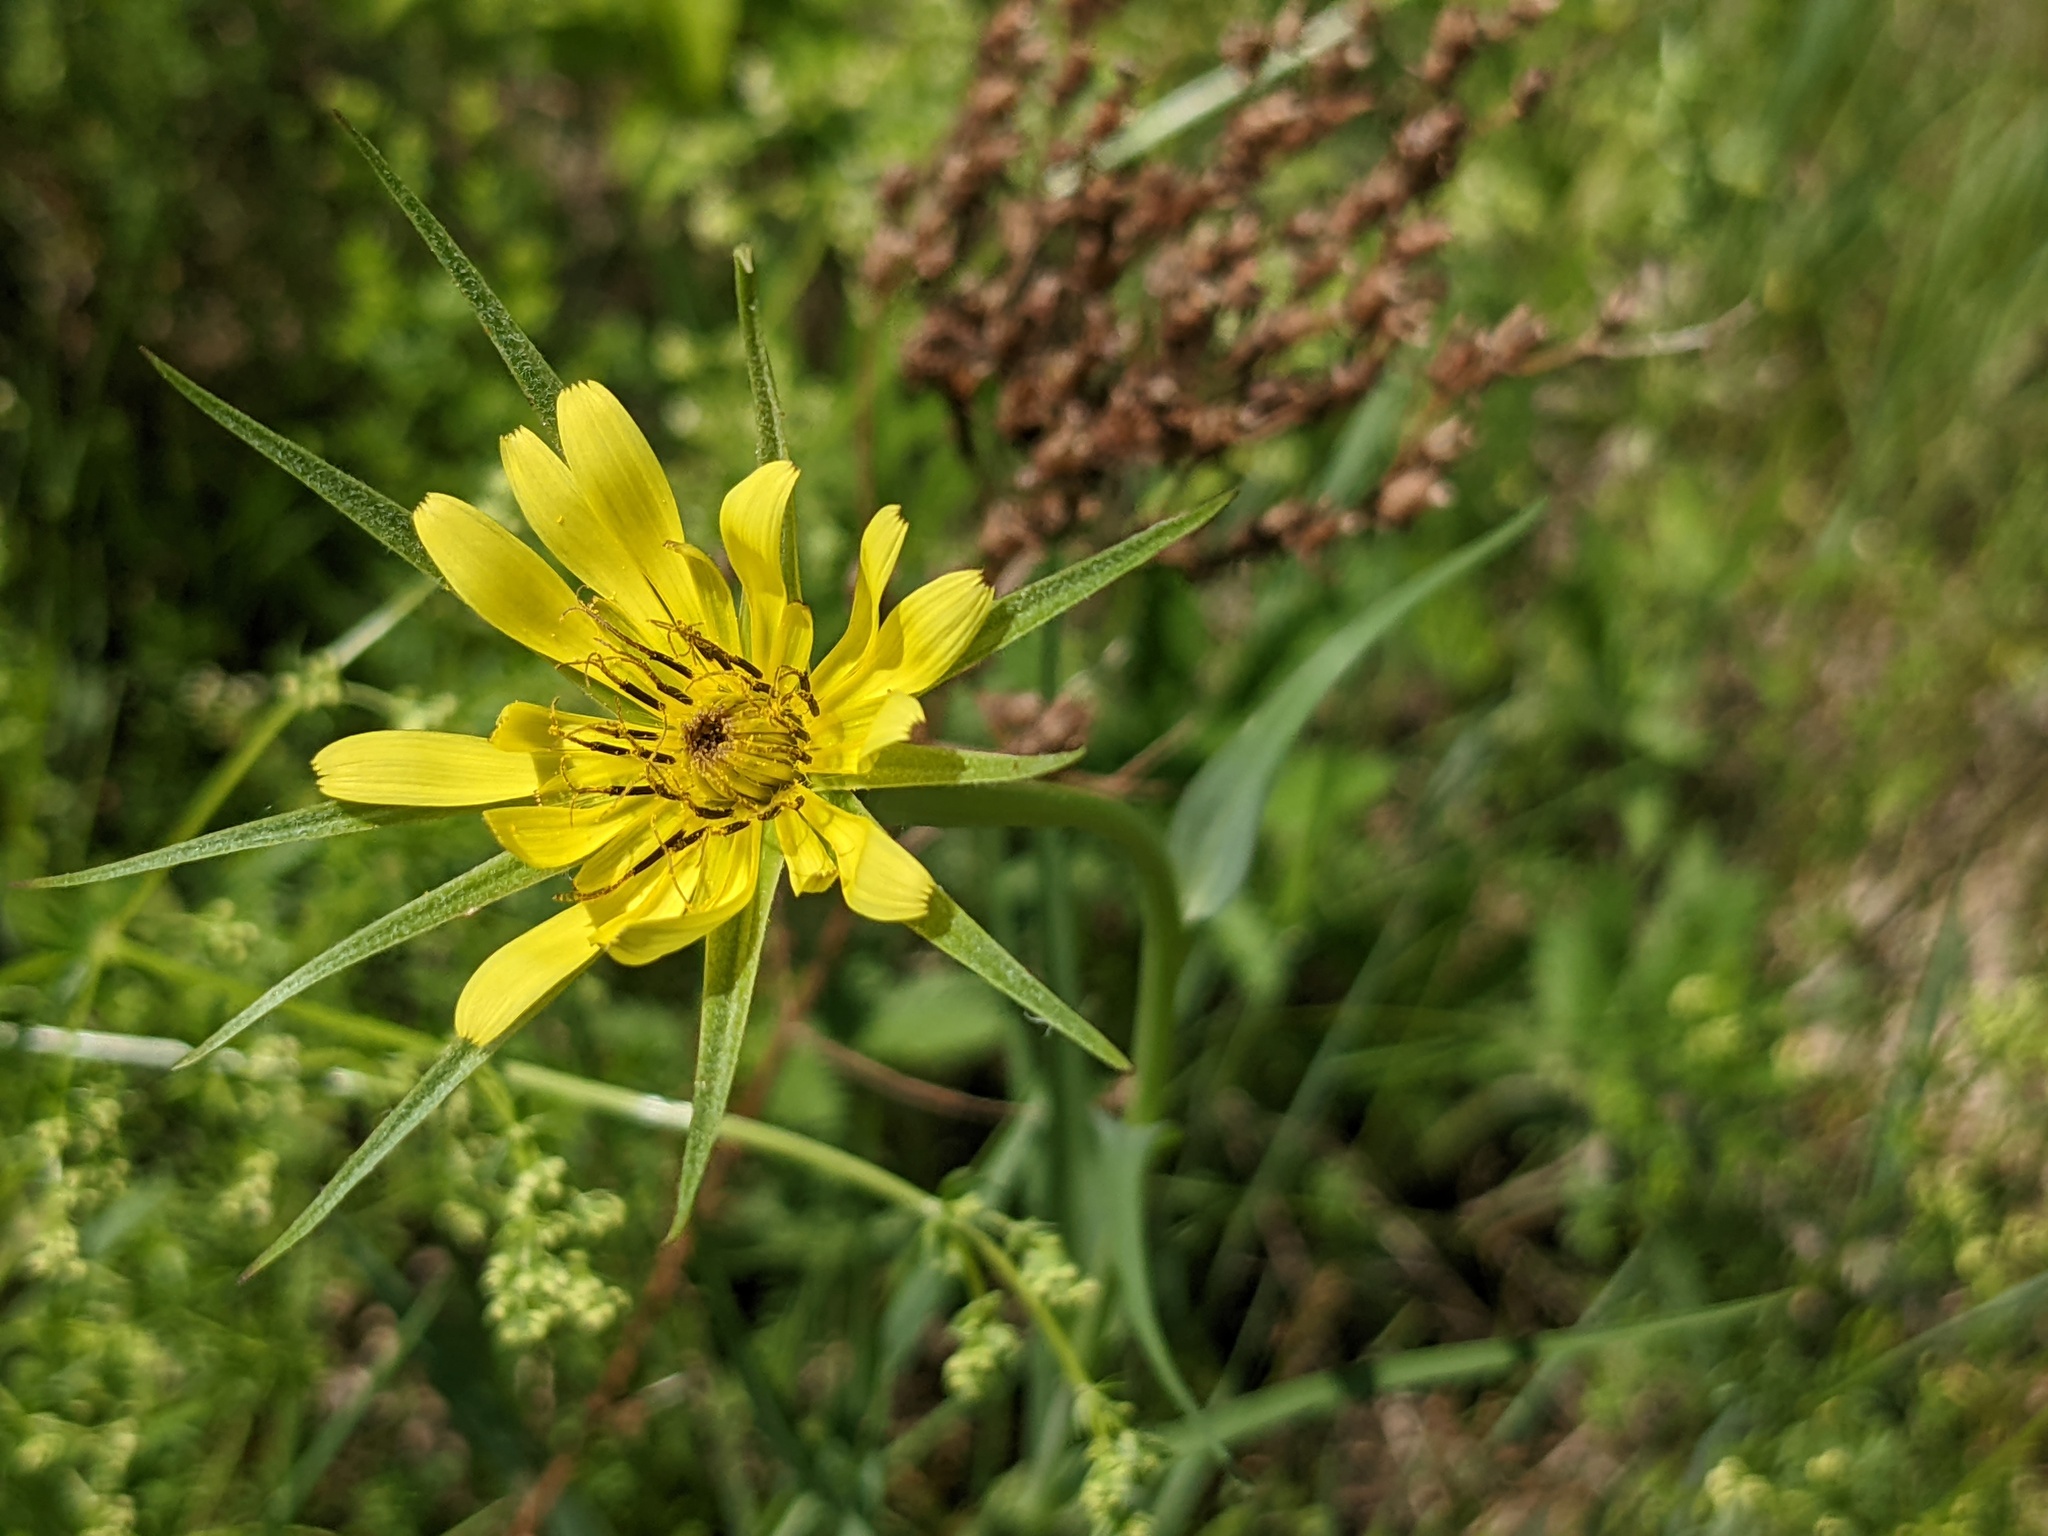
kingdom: Plantae
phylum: Tracheophyta
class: Magnoliopsida
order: Asterales
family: Asteraceae
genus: Tragopogon
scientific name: Tragopogon dubius
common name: Yellow salsify
